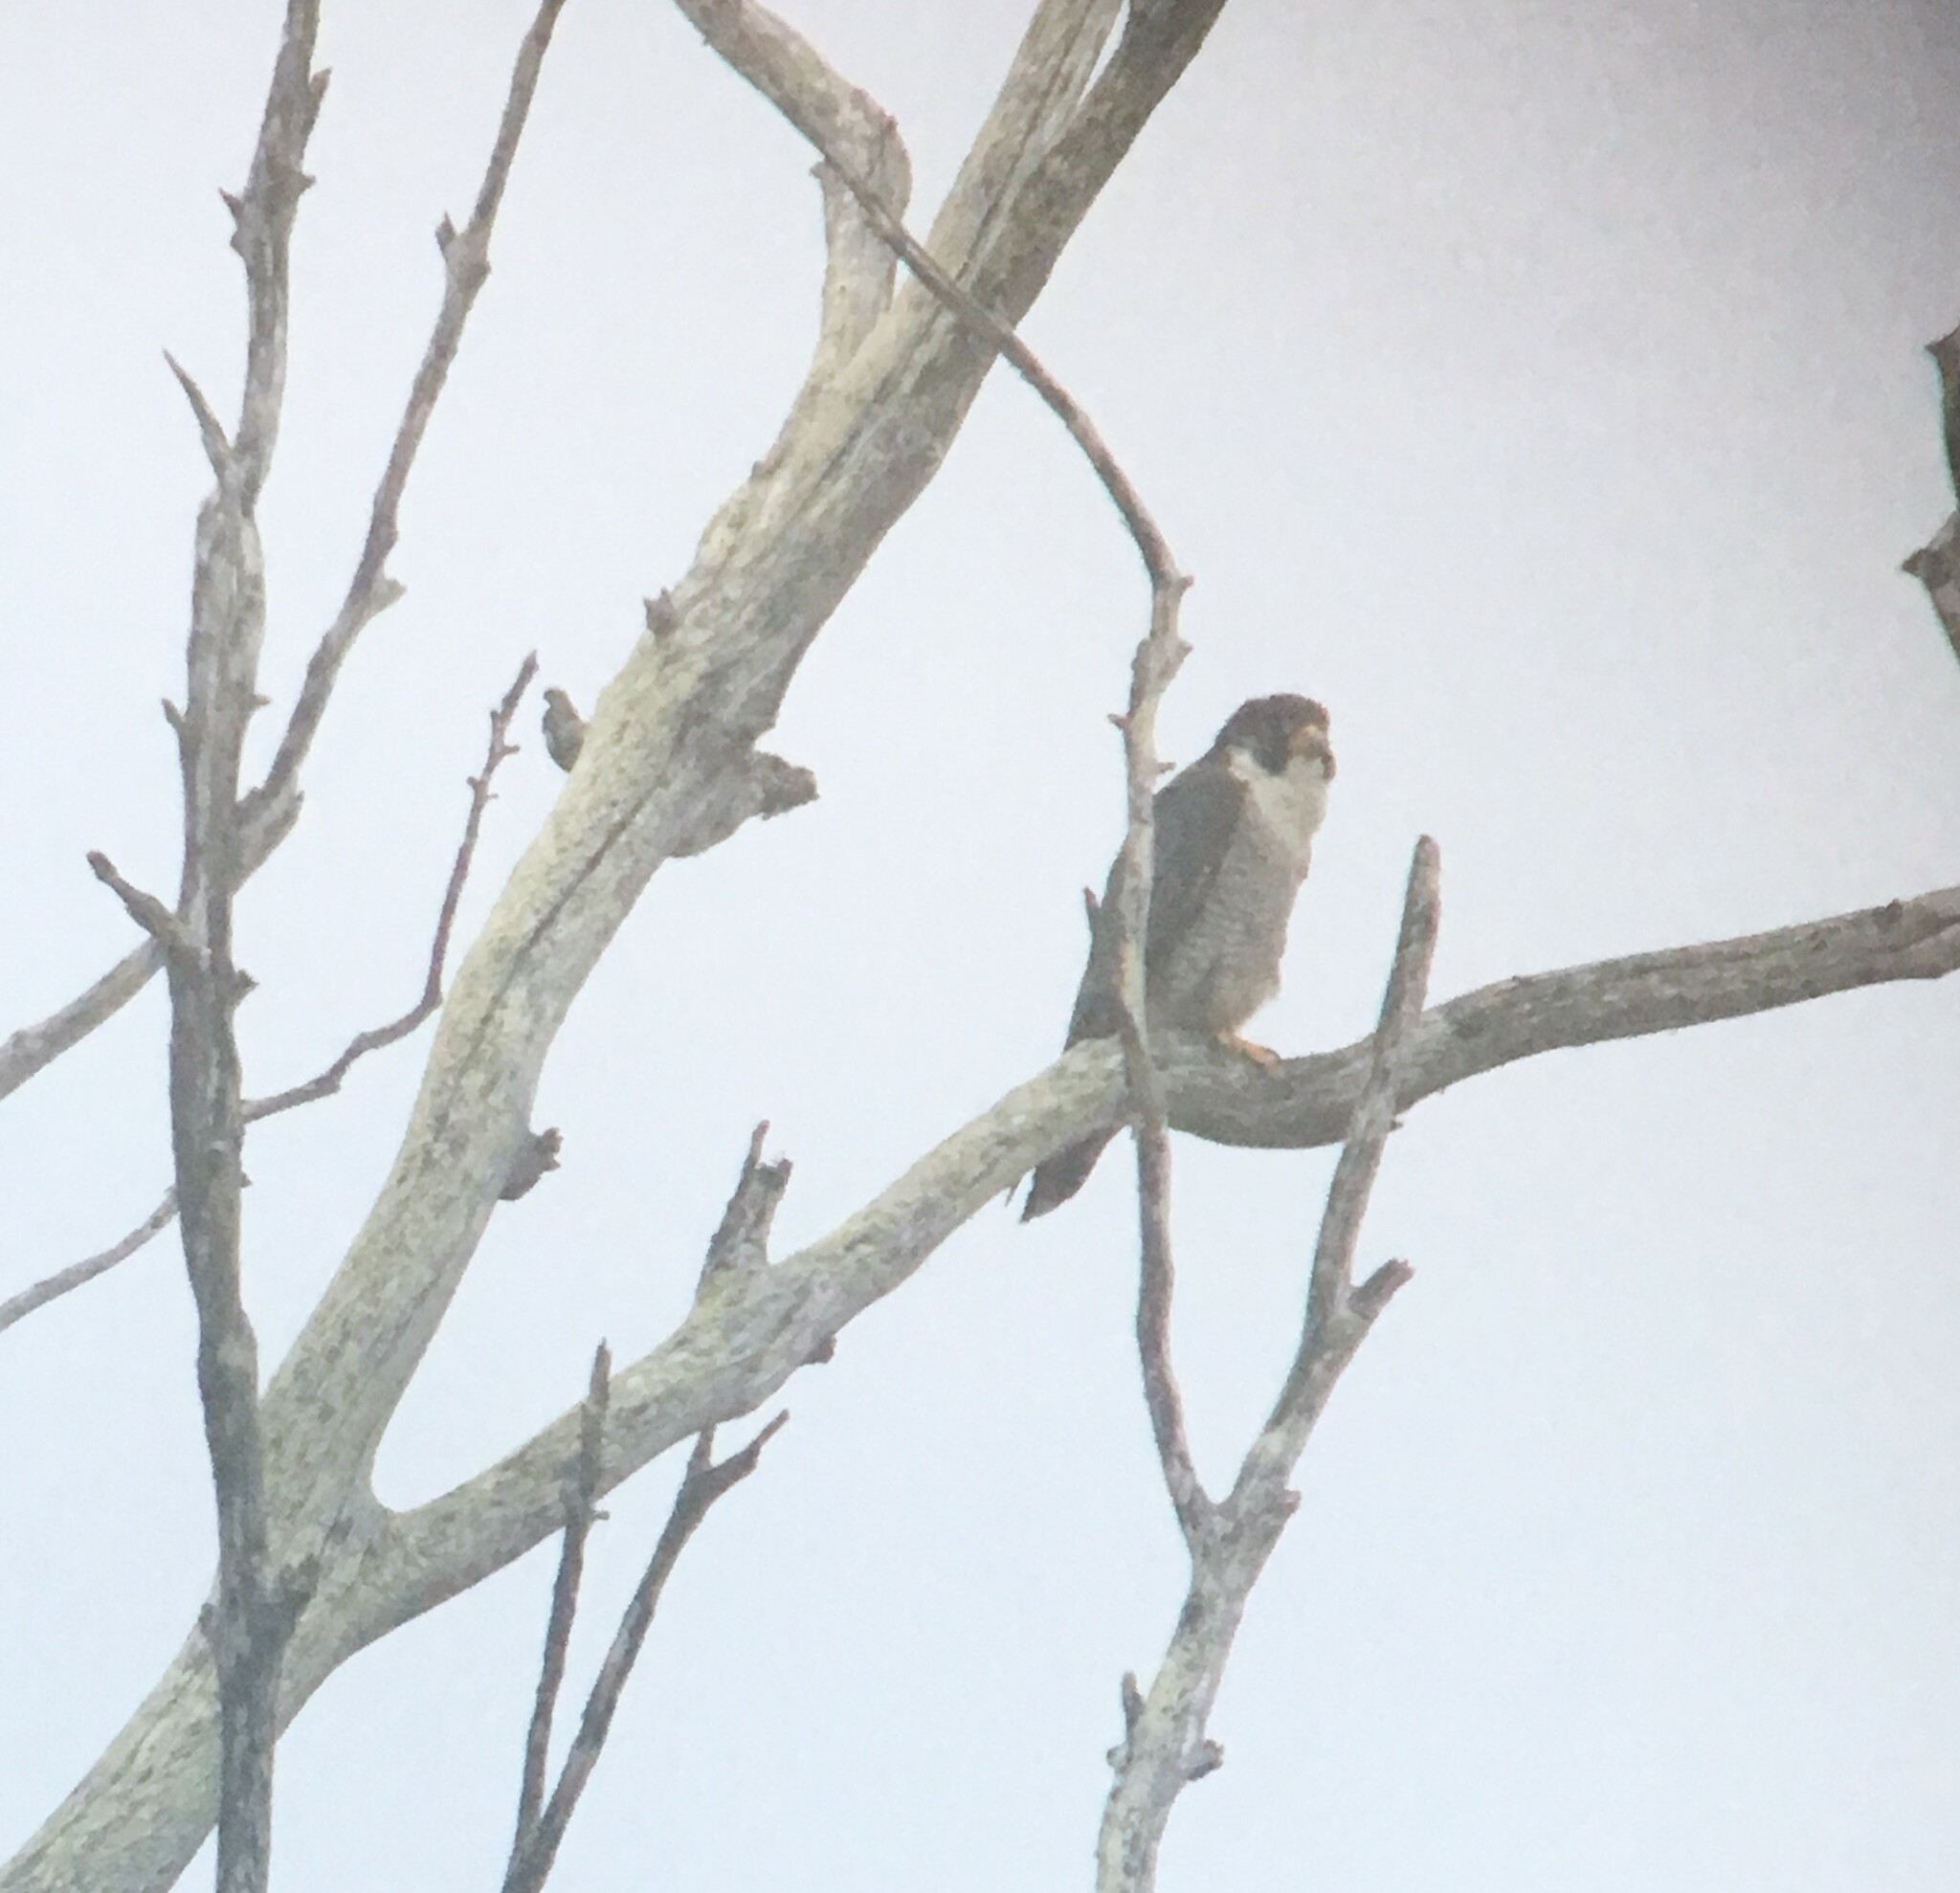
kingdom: Animalia
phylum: Chordata
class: Aves
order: Falconiformes
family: Falconidae
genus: Falco
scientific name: Falco peregrinus
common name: Peregrine falcon
